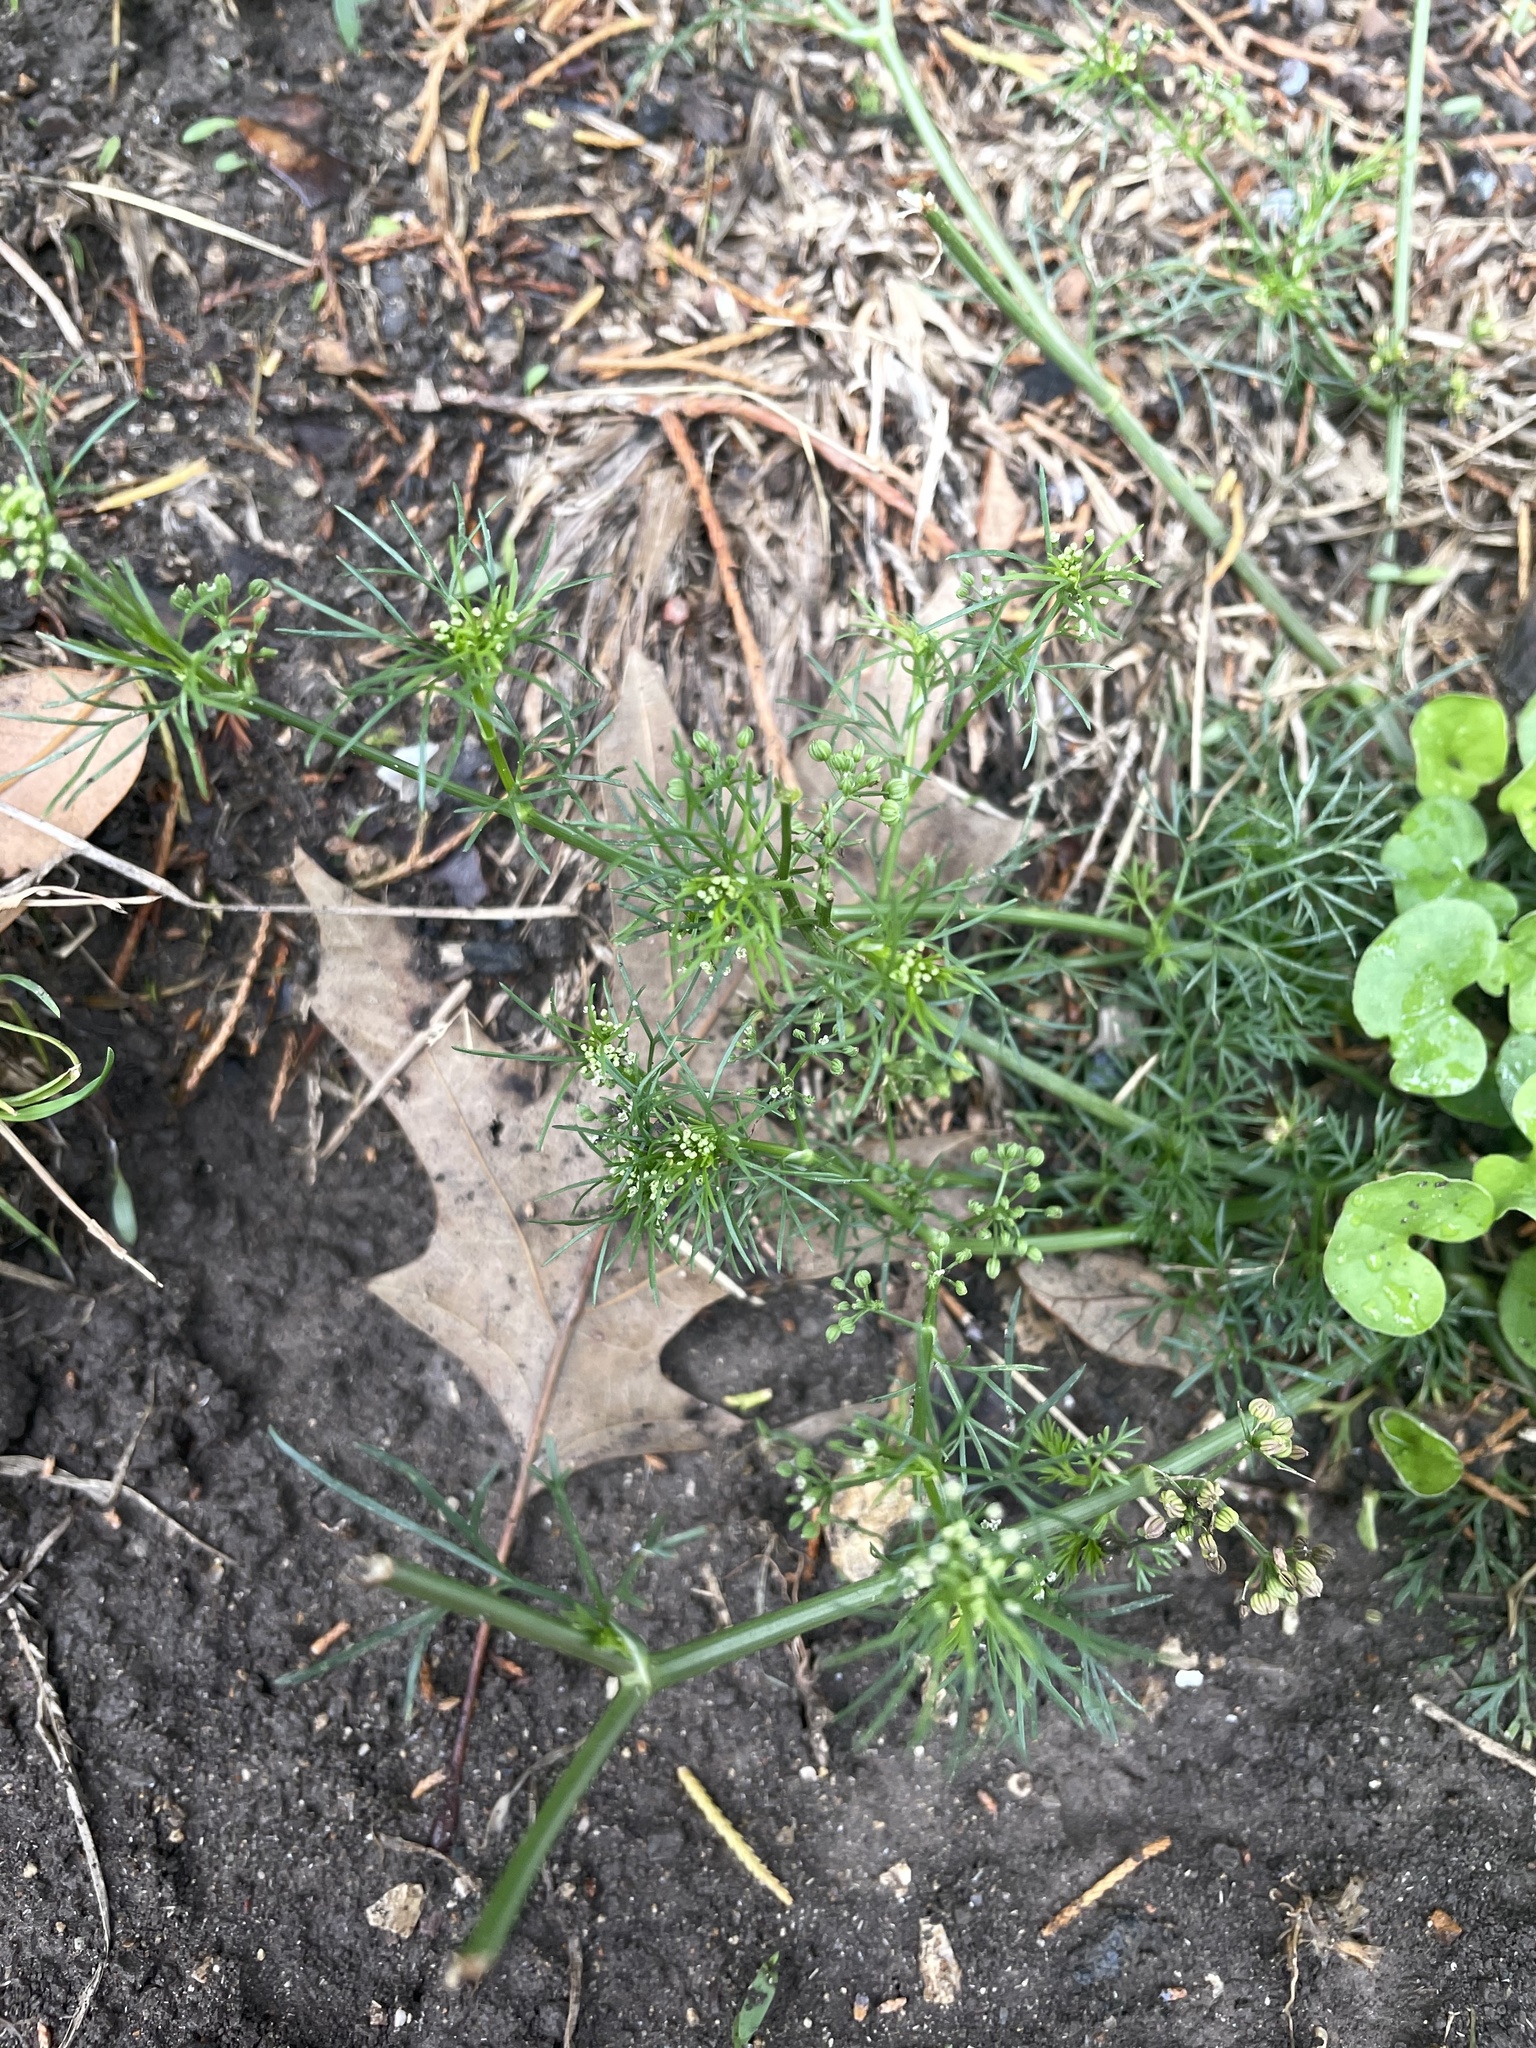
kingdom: Plantae
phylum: Tracheophyta
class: Magnoliopsida
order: Apiales
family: Apiaceae
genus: Cyclospermum
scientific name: Cyclospermum leptophyllum
